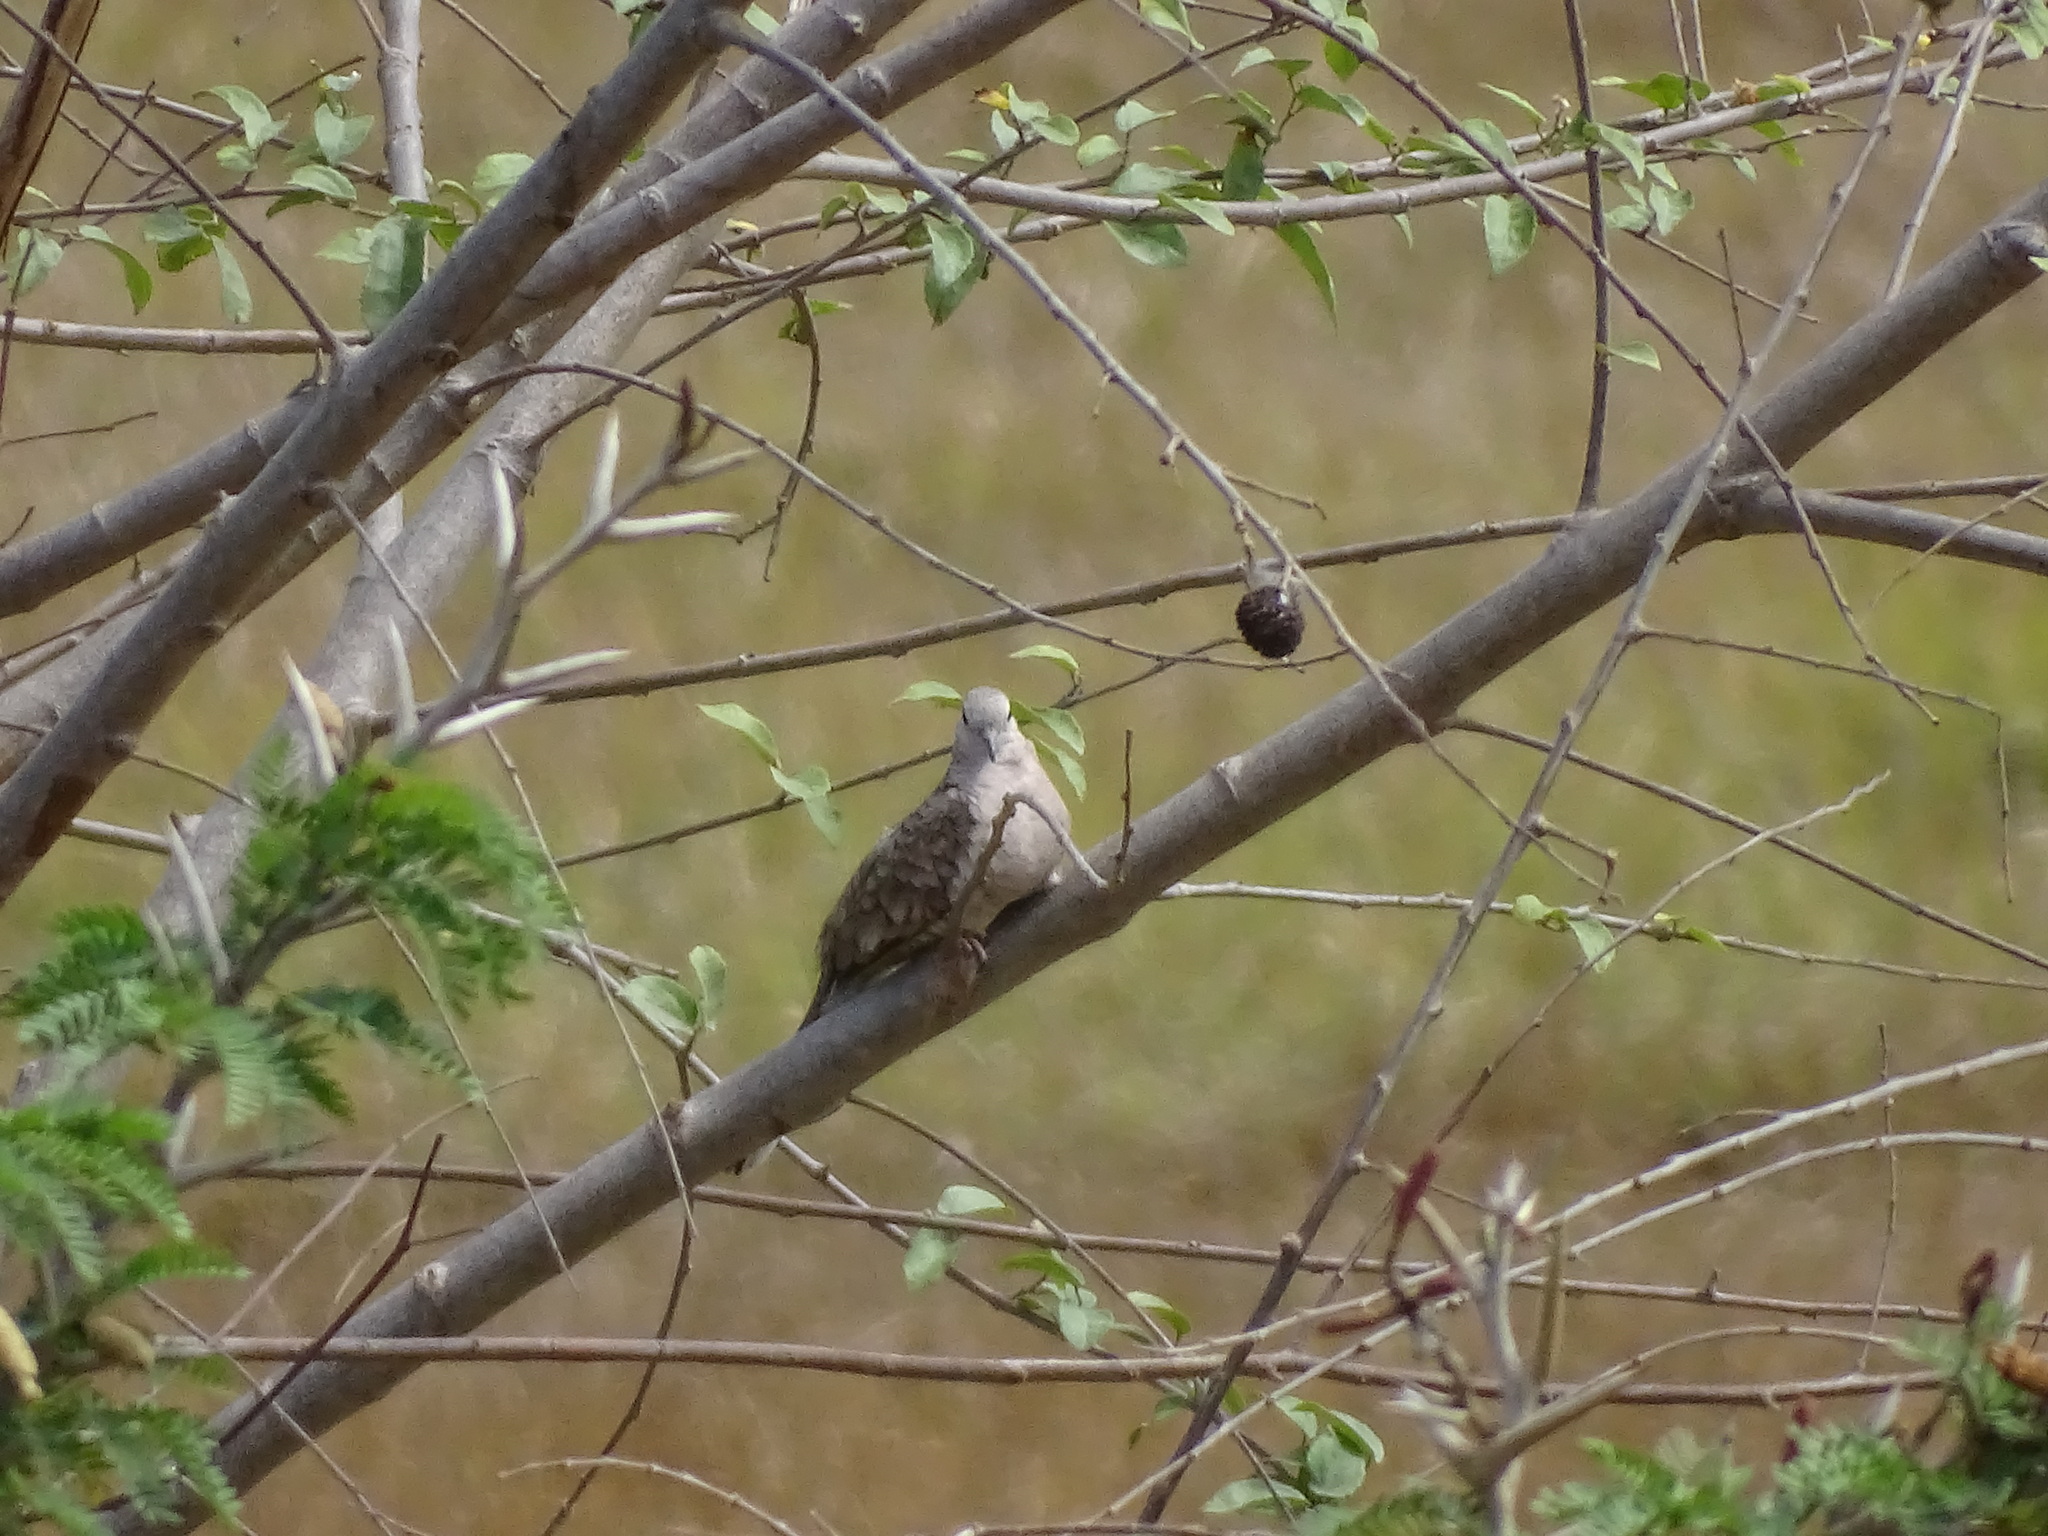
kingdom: Animalia
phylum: Chordata
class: Aves
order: Columbiformes
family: Columbidae
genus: Columbina
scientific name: Columbina inca
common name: Inca dove
